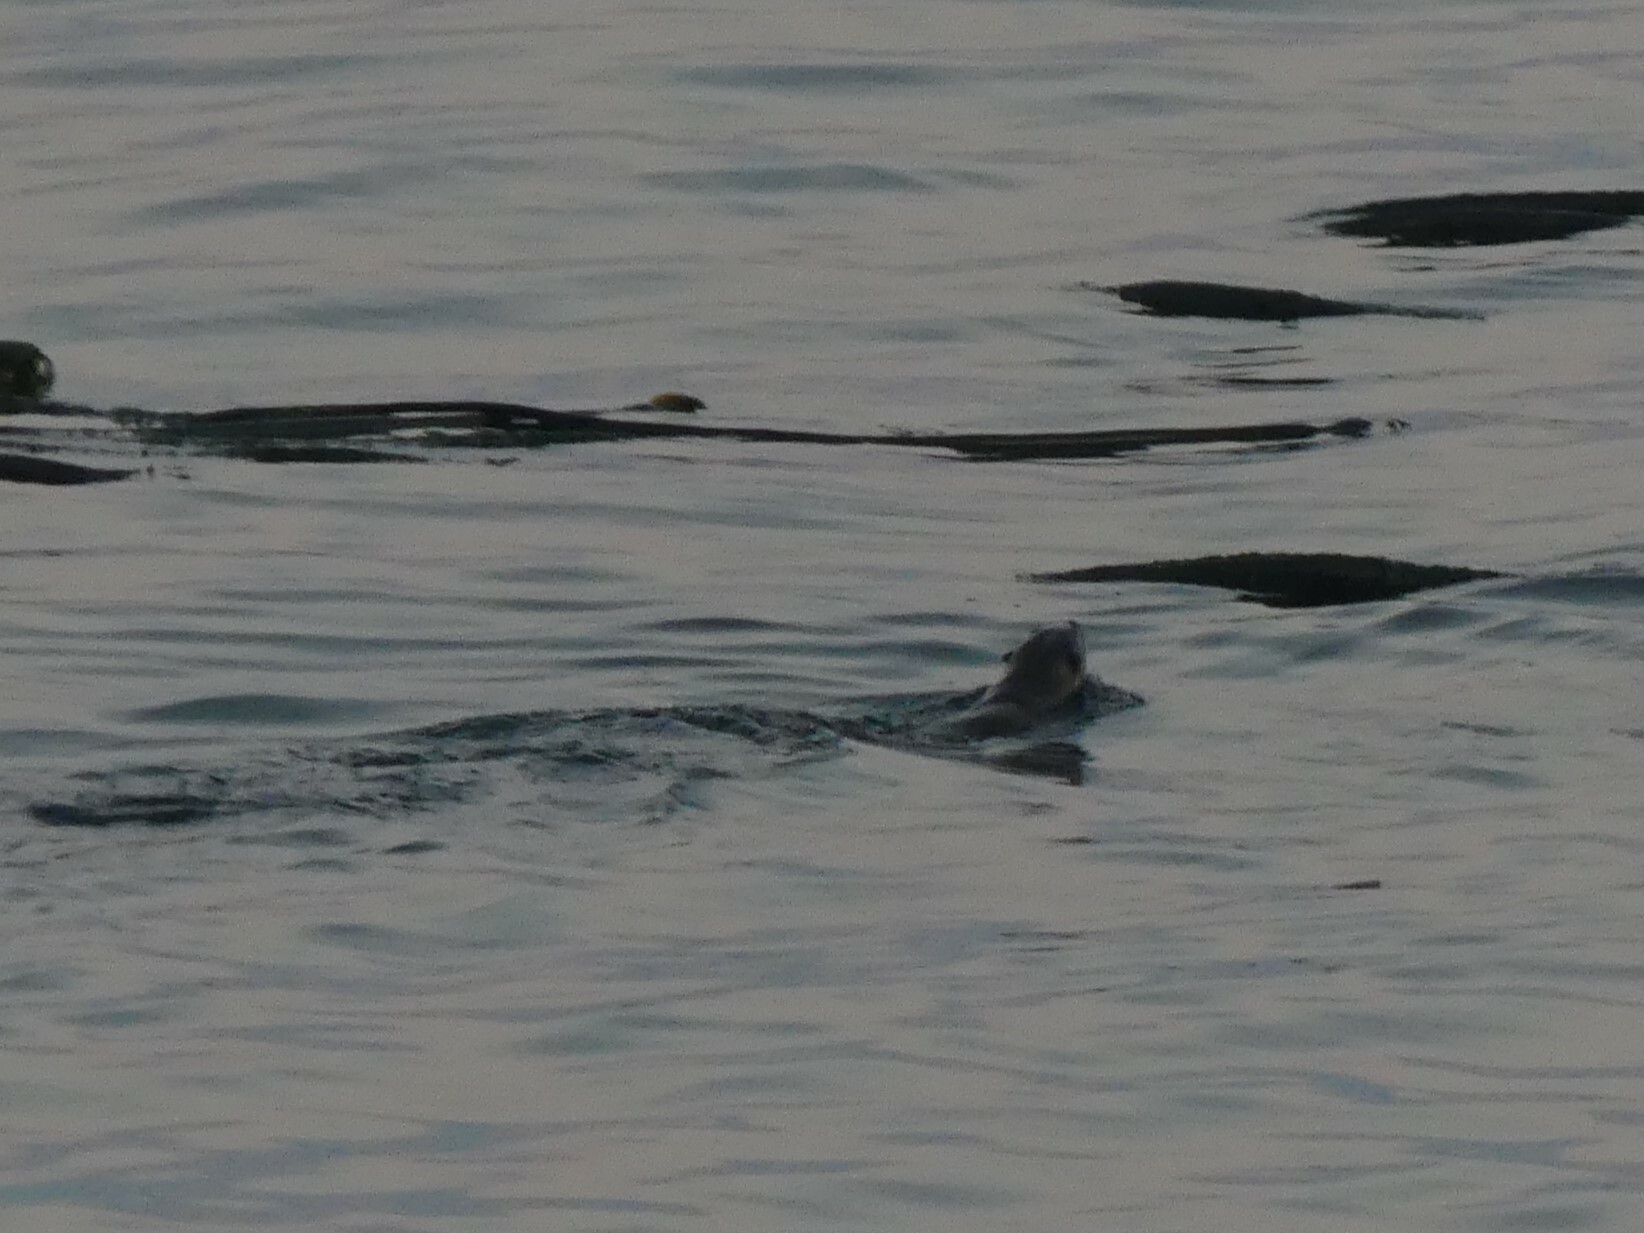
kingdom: Animalia
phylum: Chordata
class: Mammalia
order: Carnivora
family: Mustelidae
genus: Lontra
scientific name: Lontra canadensis
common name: North american river otter
